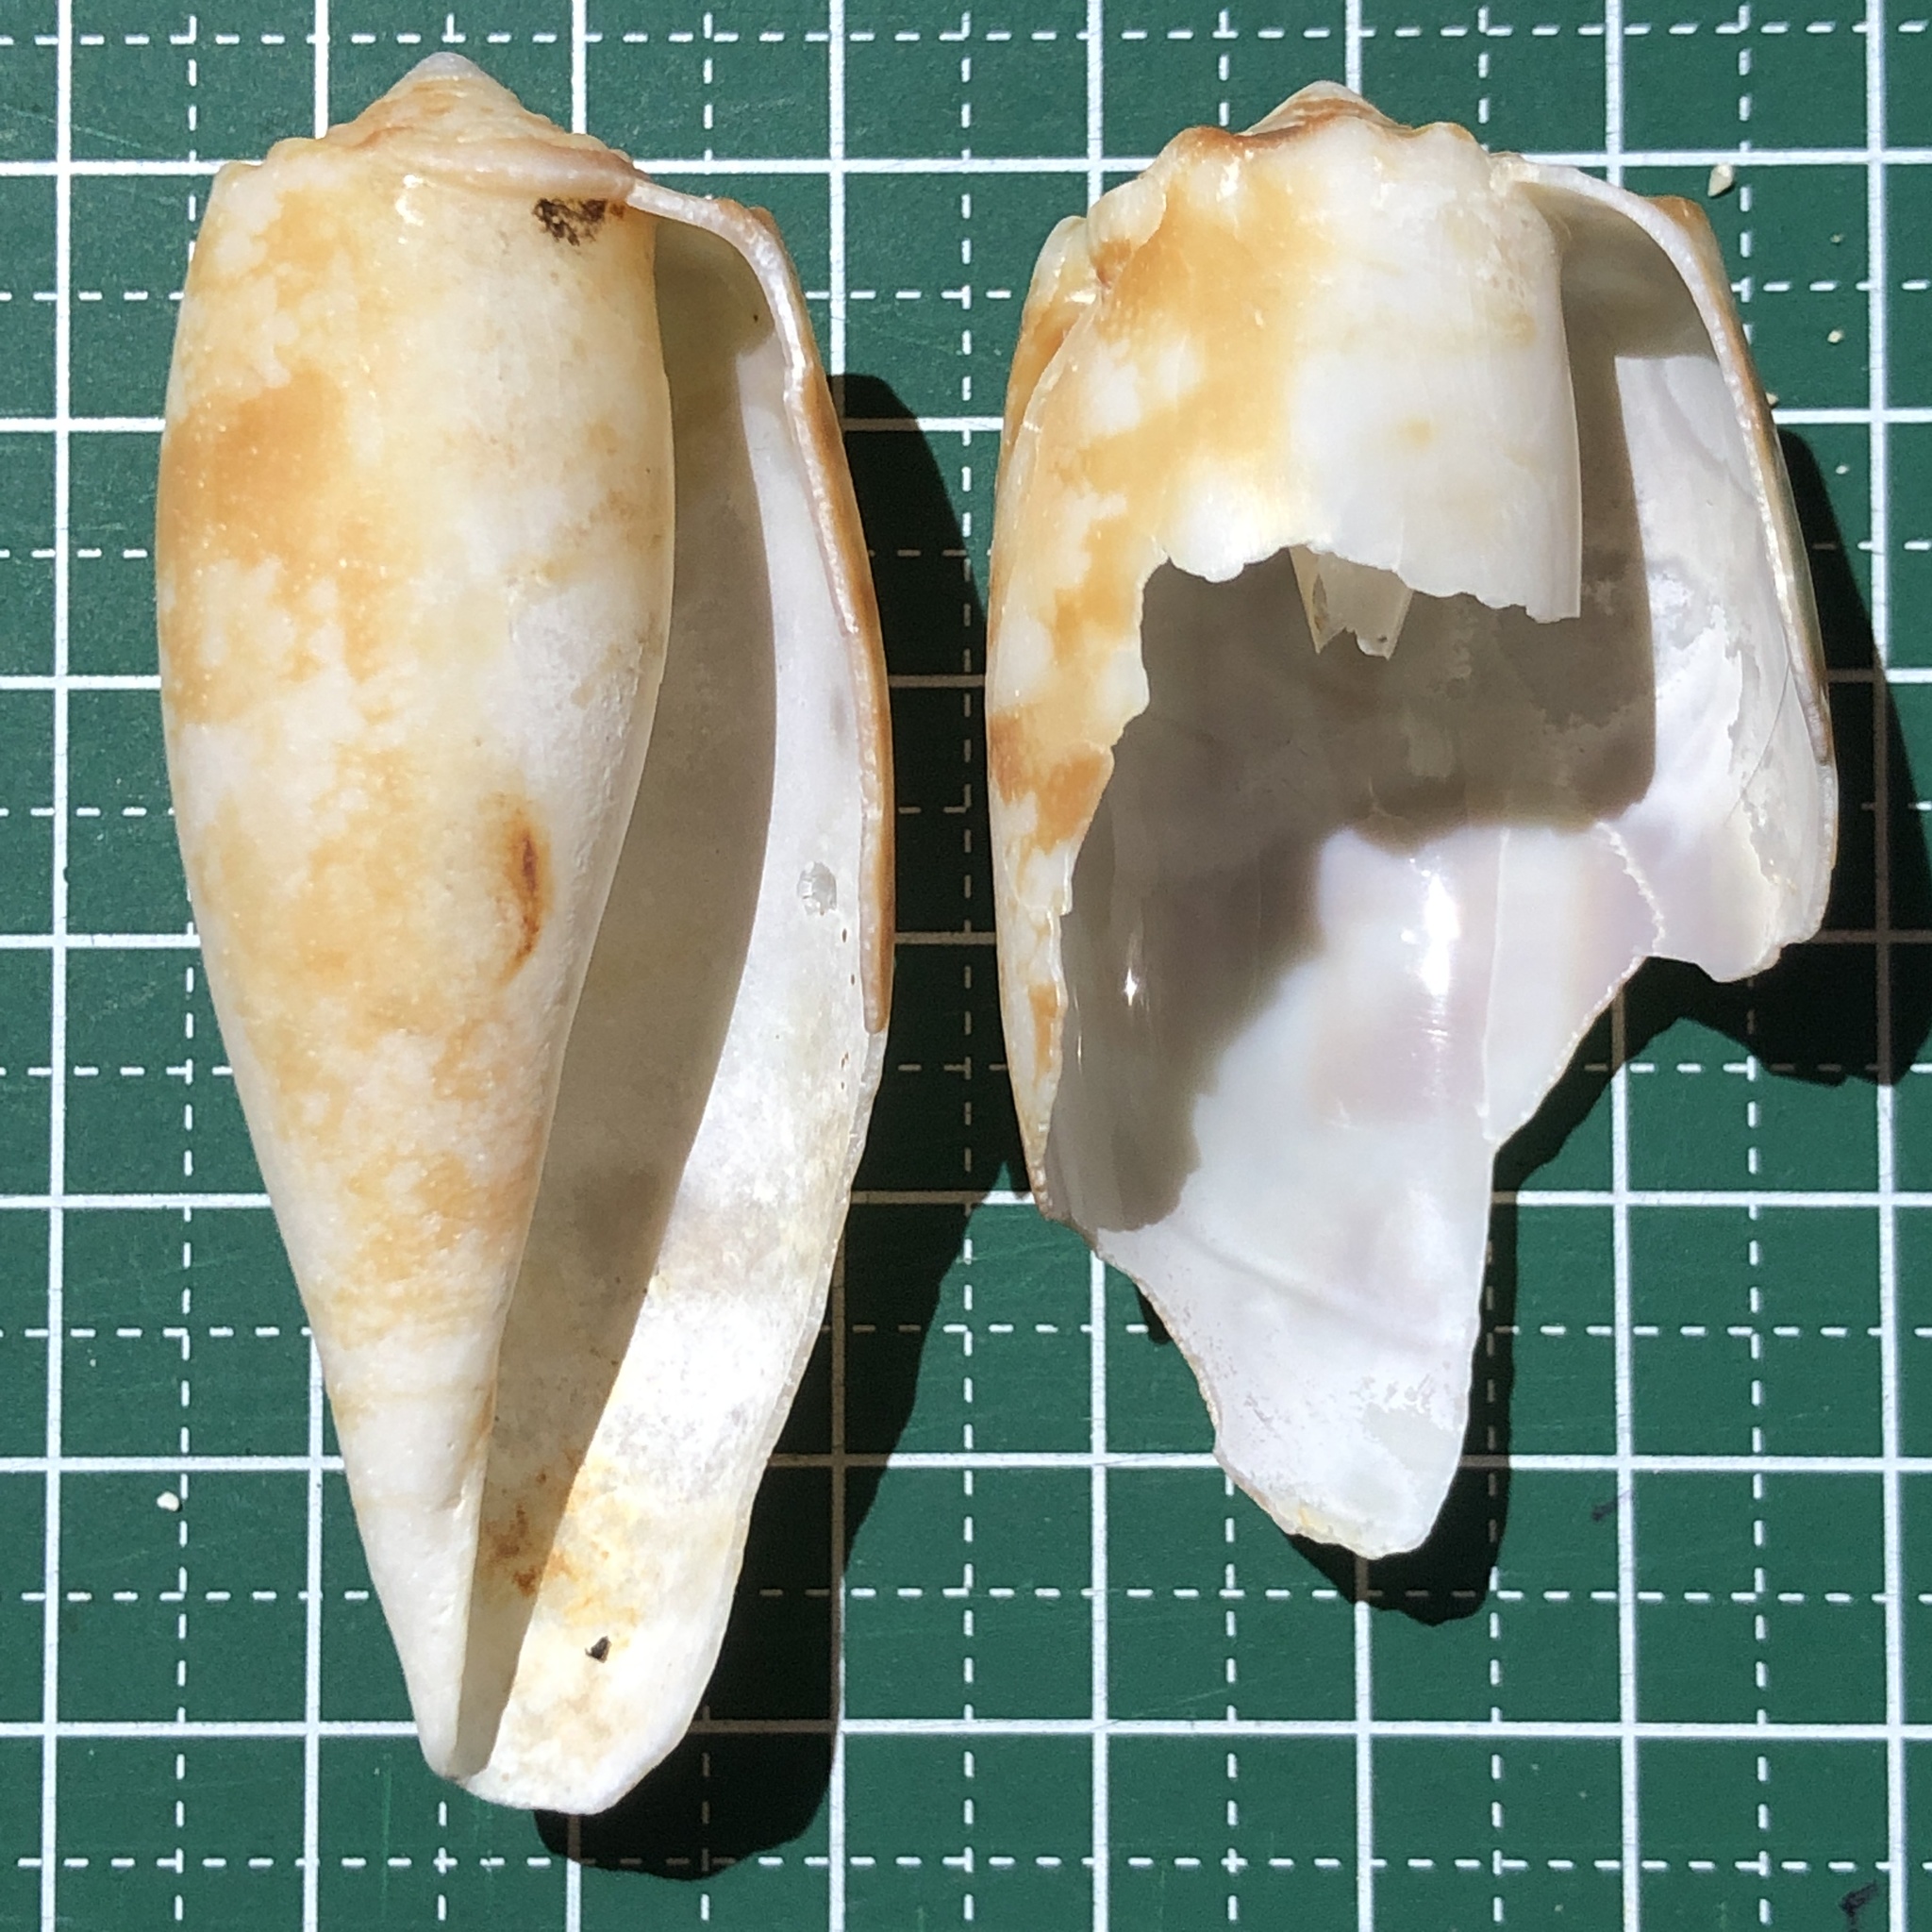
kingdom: Animalia
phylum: Mollusca
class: Gastropoda
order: Neogastropoda
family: Conidae
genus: Conus
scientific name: Conus geographus
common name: Geographer cone
